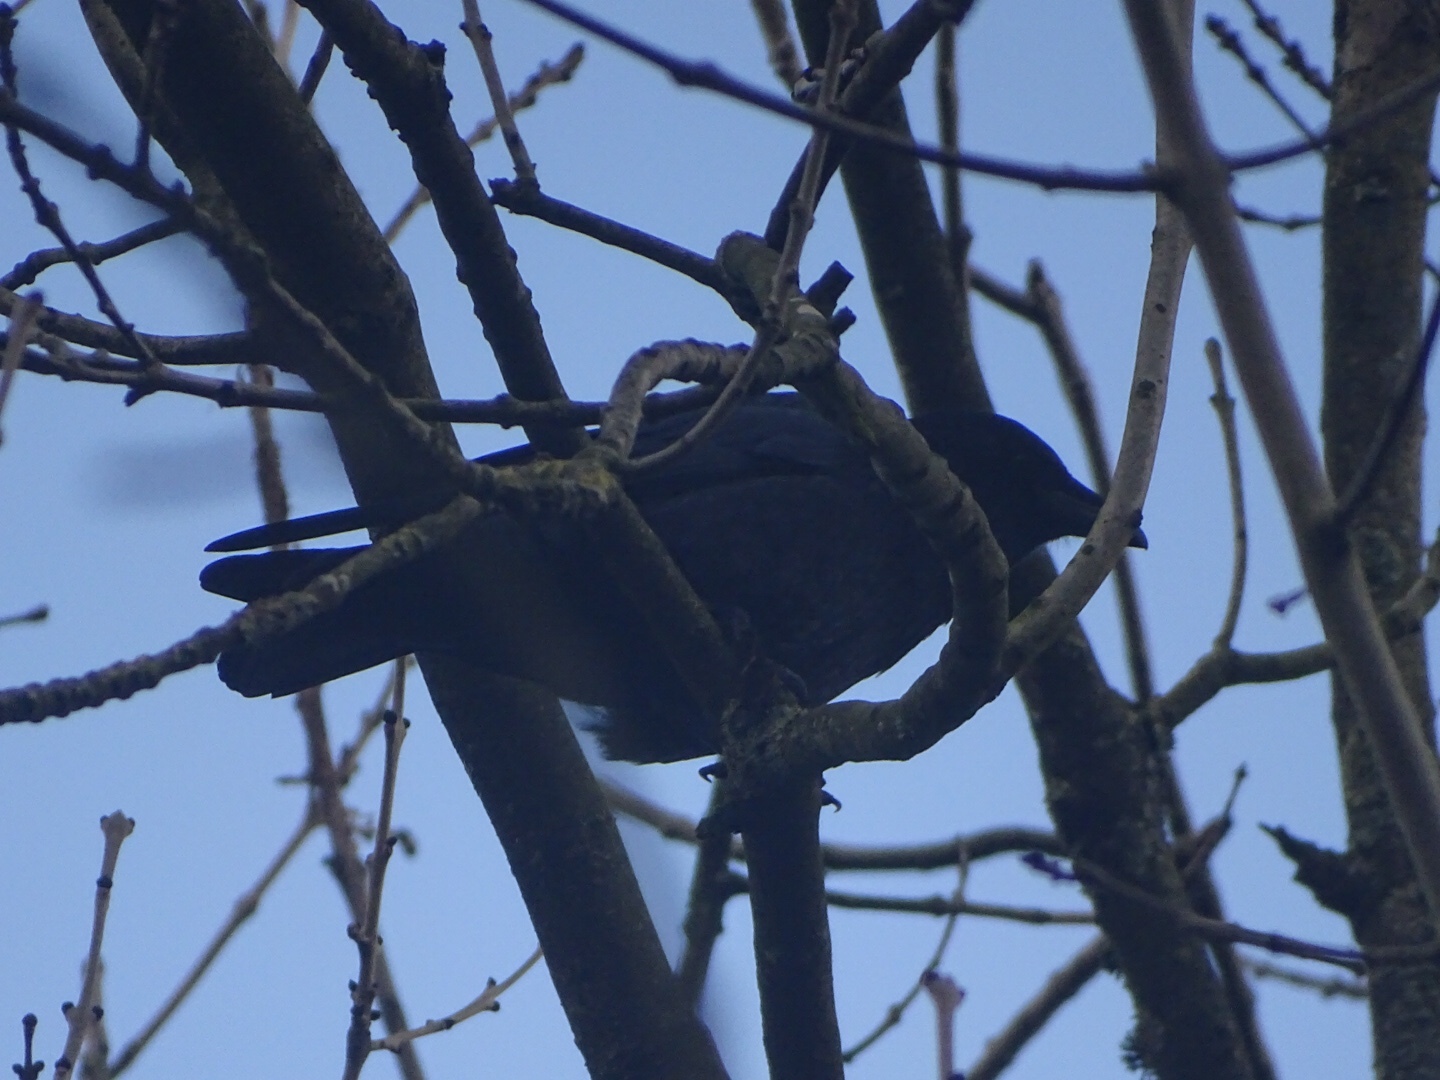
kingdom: Animalia
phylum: Chordata
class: Aves
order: Passeriformes
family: Corvidae
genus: Corvus
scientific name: Corvus corone
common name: Carrion crow
